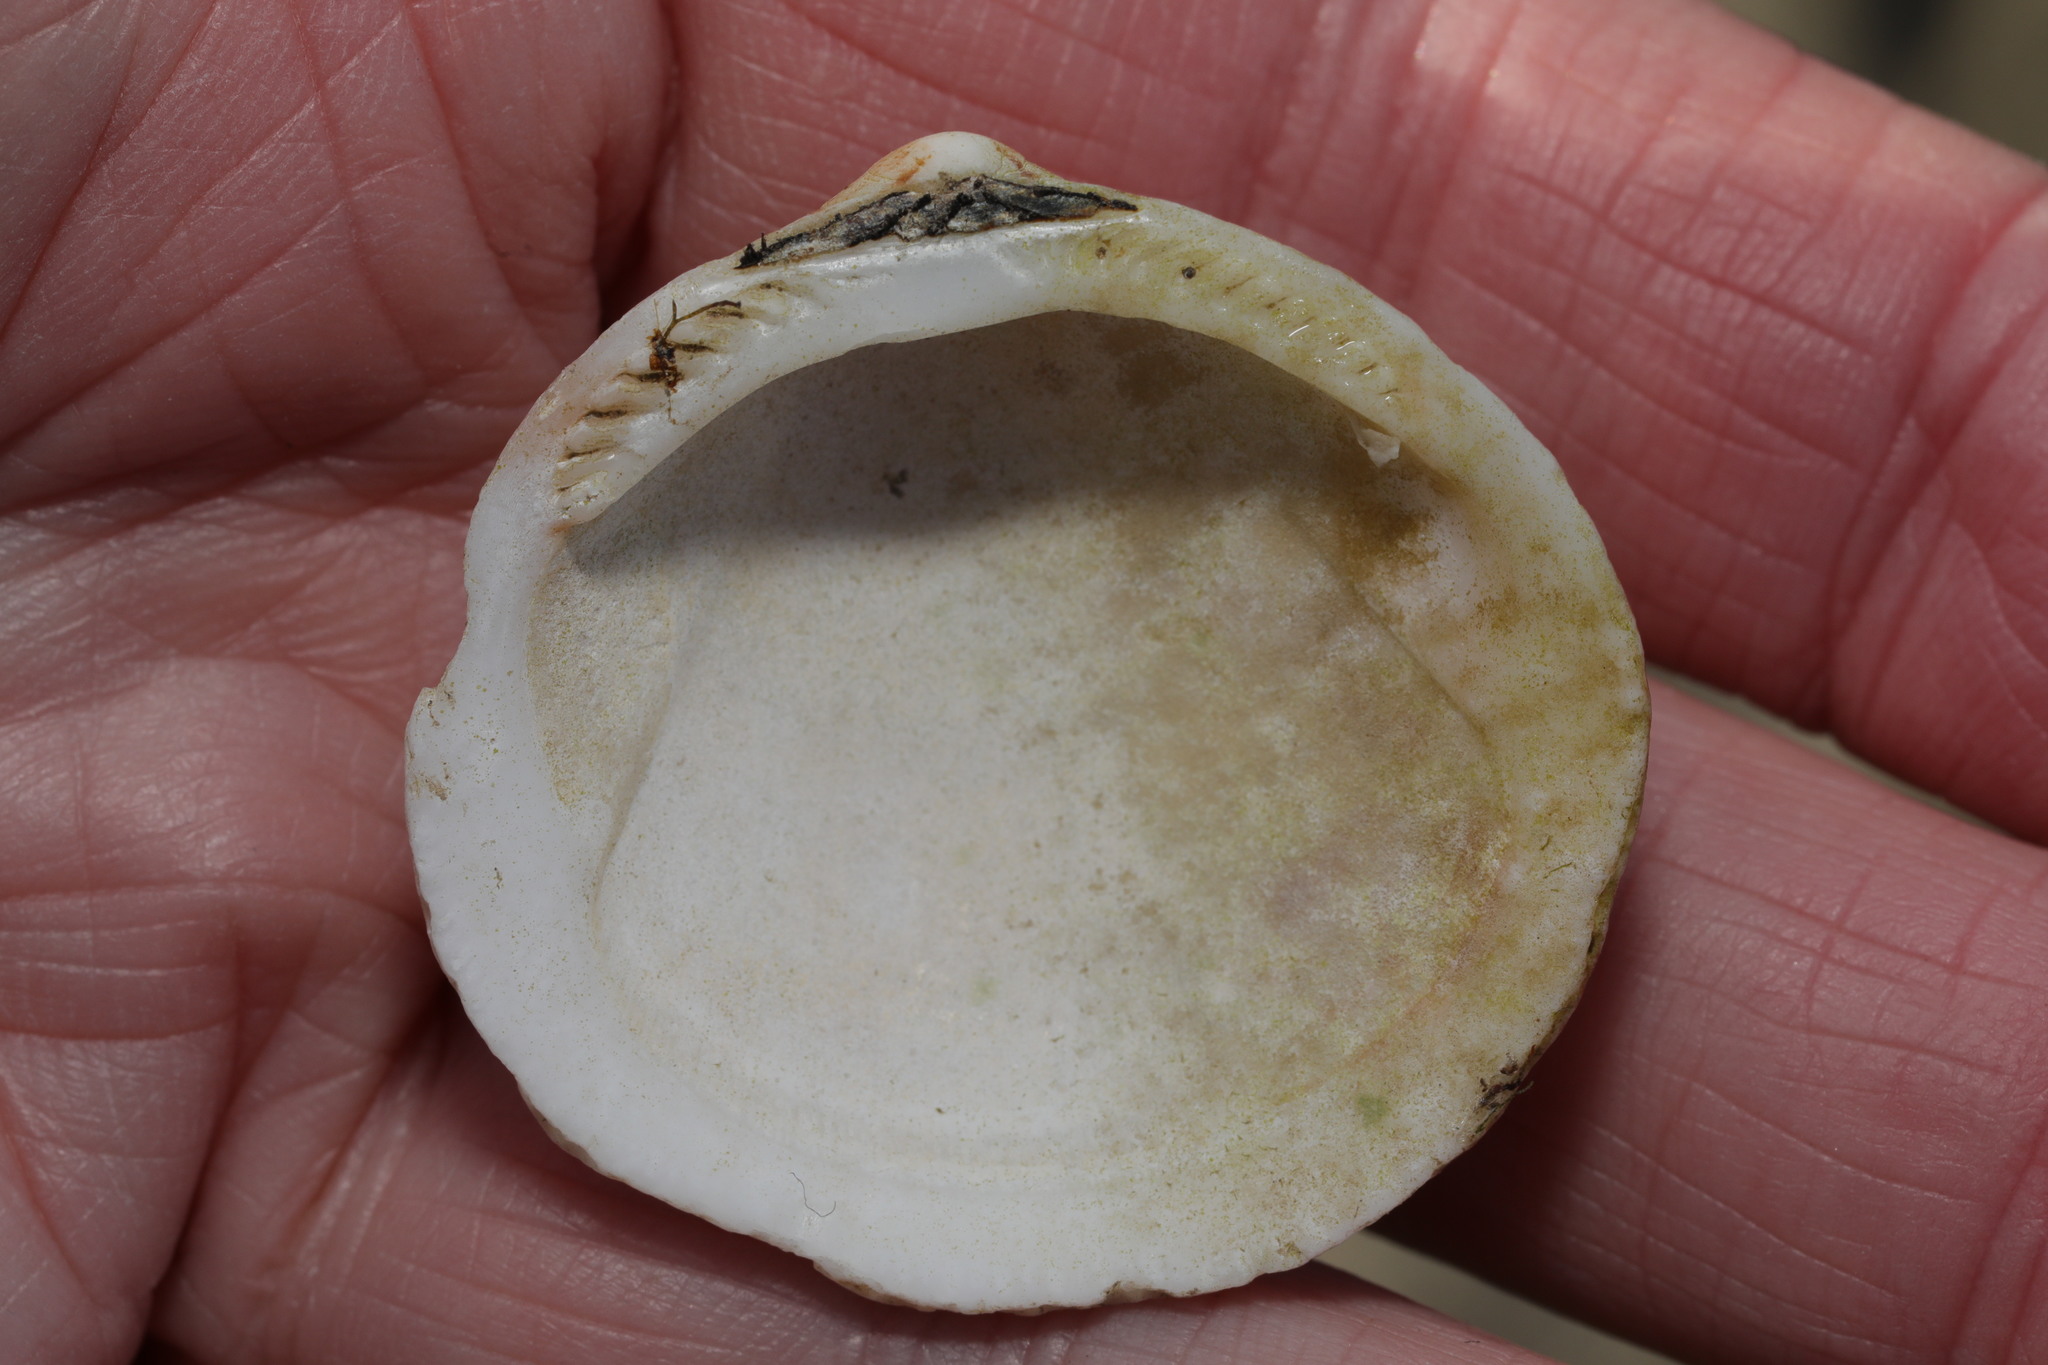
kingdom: Animalia
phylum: Mollusca
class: Bivalvia
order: Arcida
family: Glycymerididae
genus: Glycymeris
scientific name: Glycymeris glycymeris
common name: Dog-cockle
